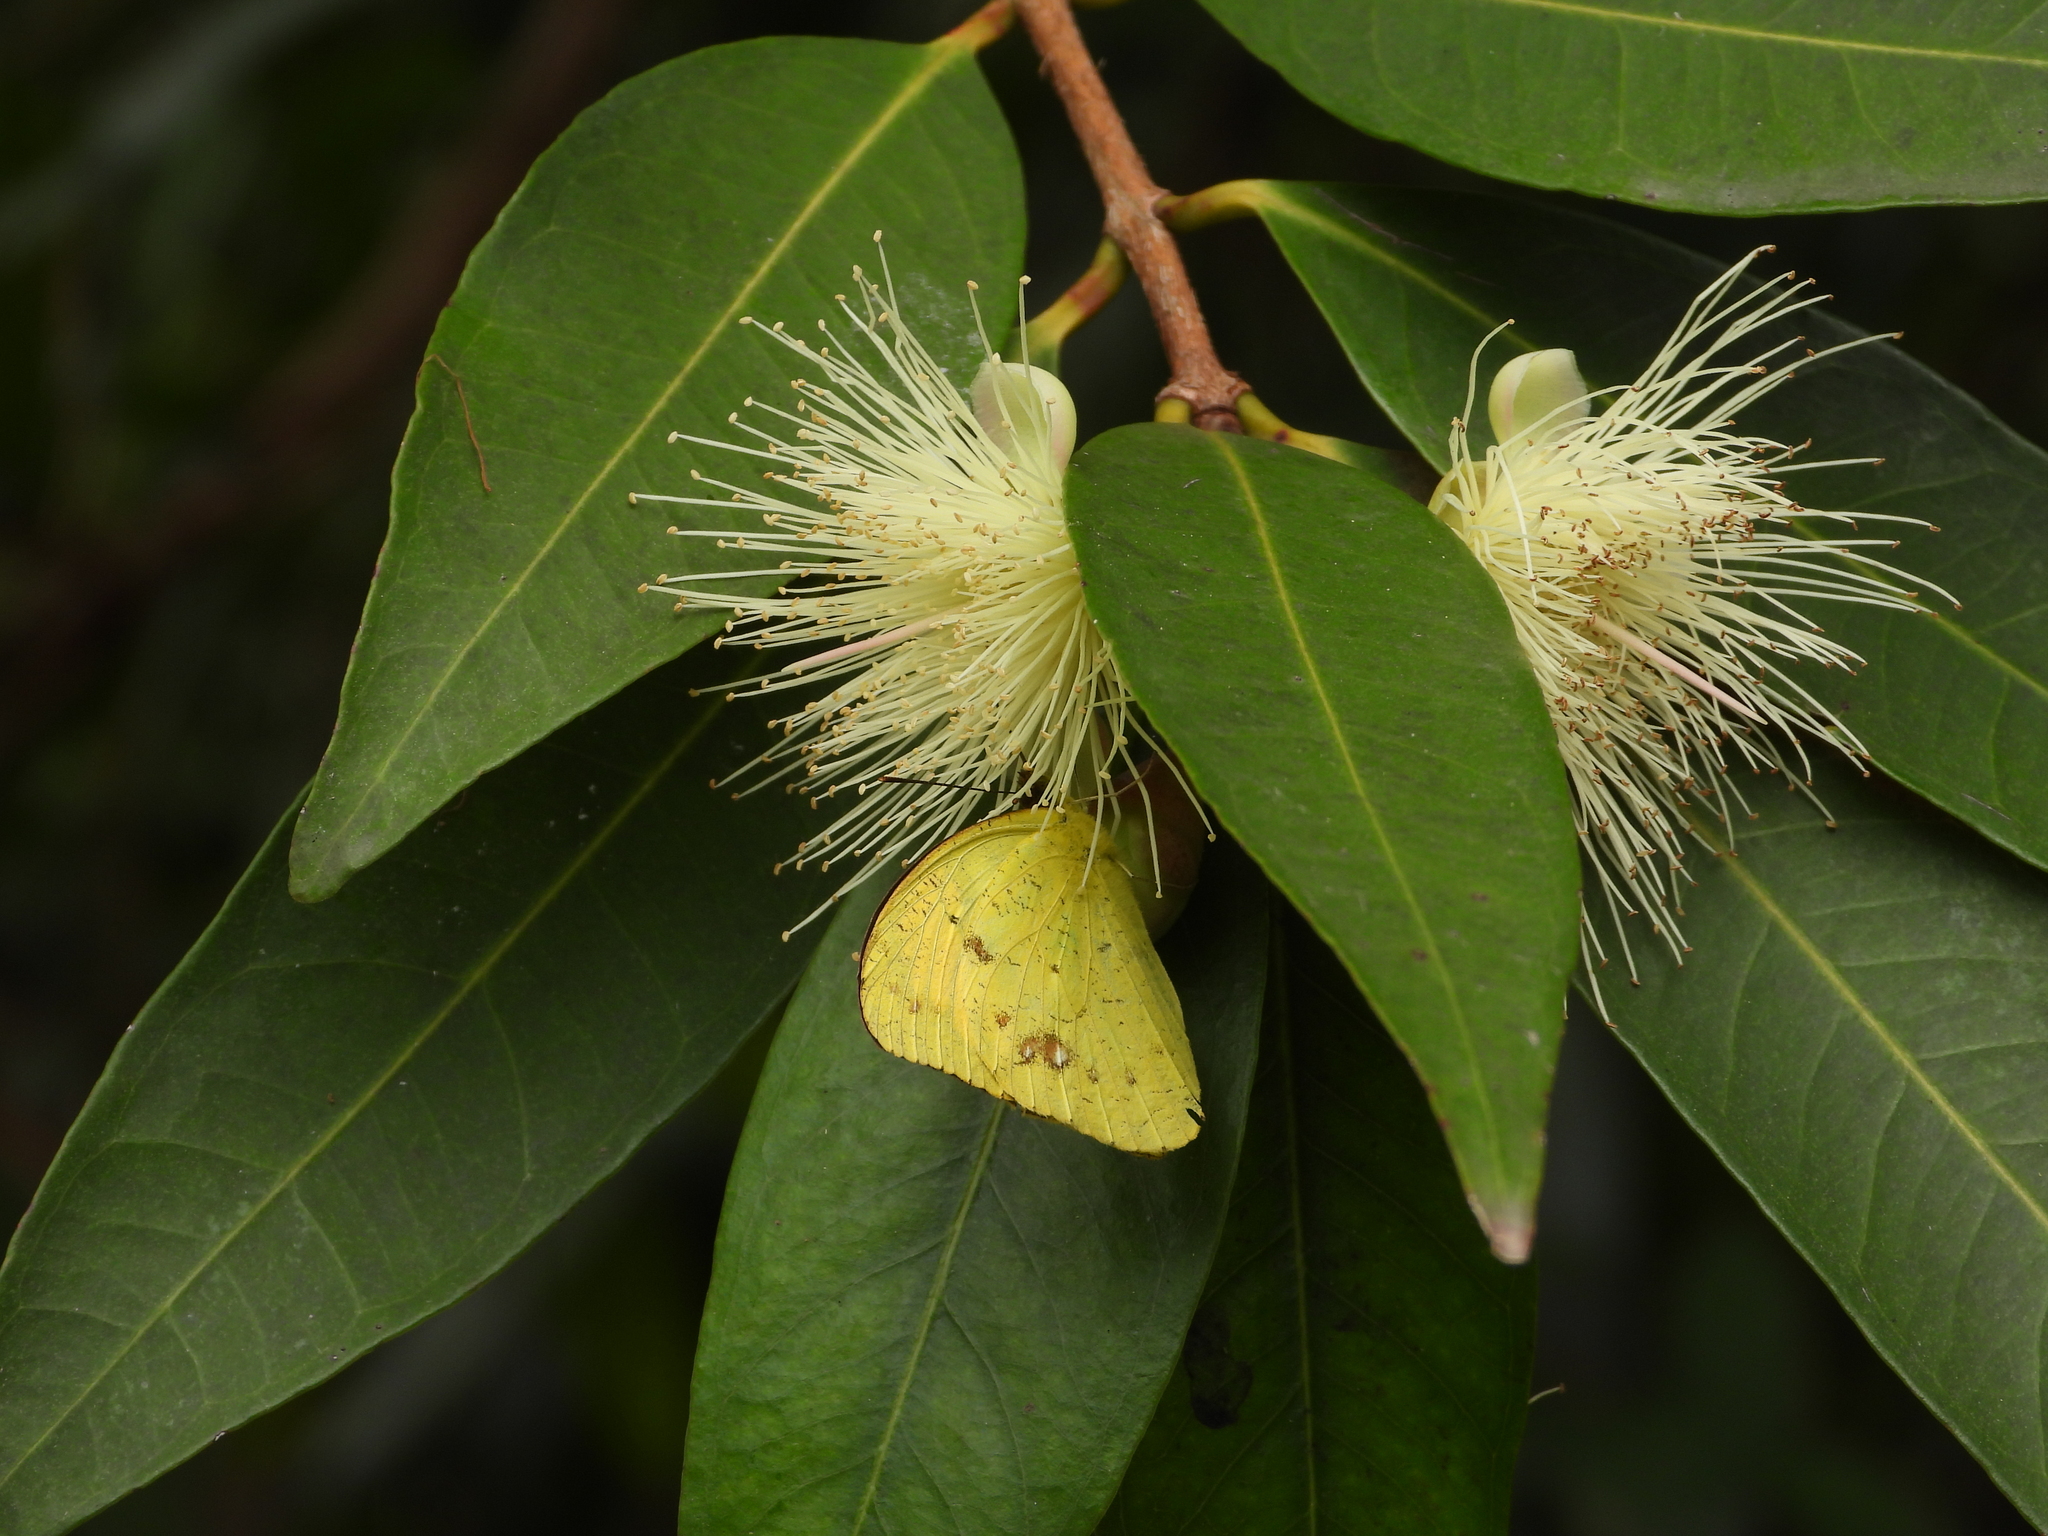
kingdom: Animalia
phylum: Arthropoda
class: Insecta
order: Lepidoptera
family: Pieridae
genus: Ixias
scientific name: Ixias pyrene
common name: Yellow orange tip
